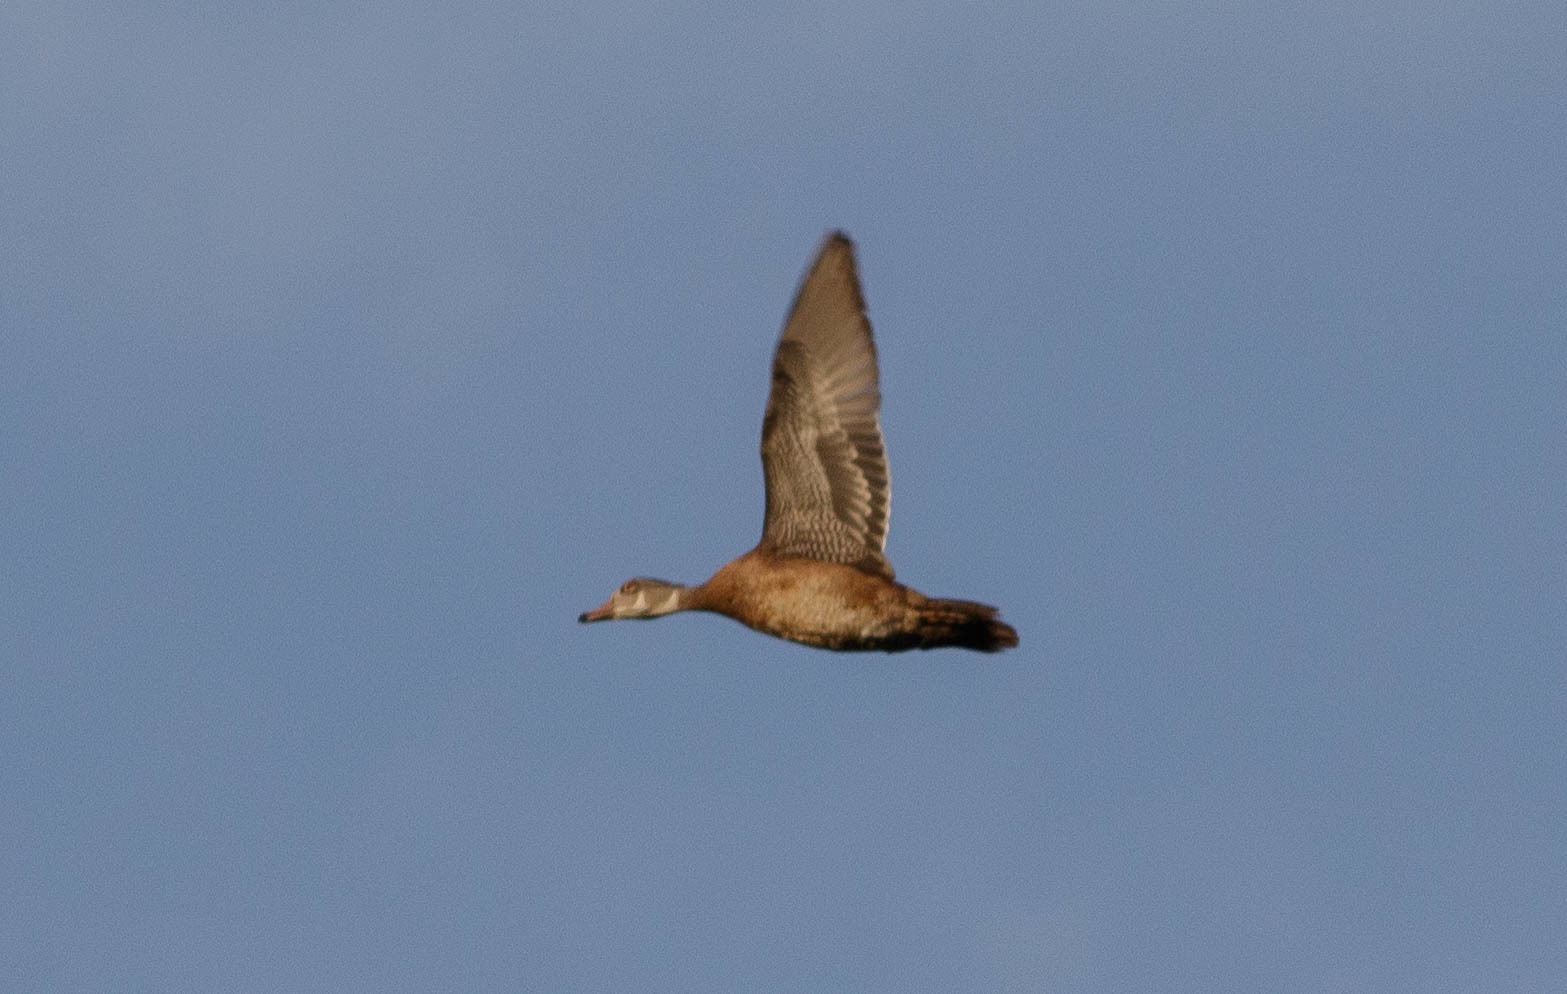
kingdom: Animalia
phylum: Chordata
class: Aves
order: Anseriformes
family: Anatidae
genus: Aix
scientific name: Aix sponsa
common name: Wood duck
